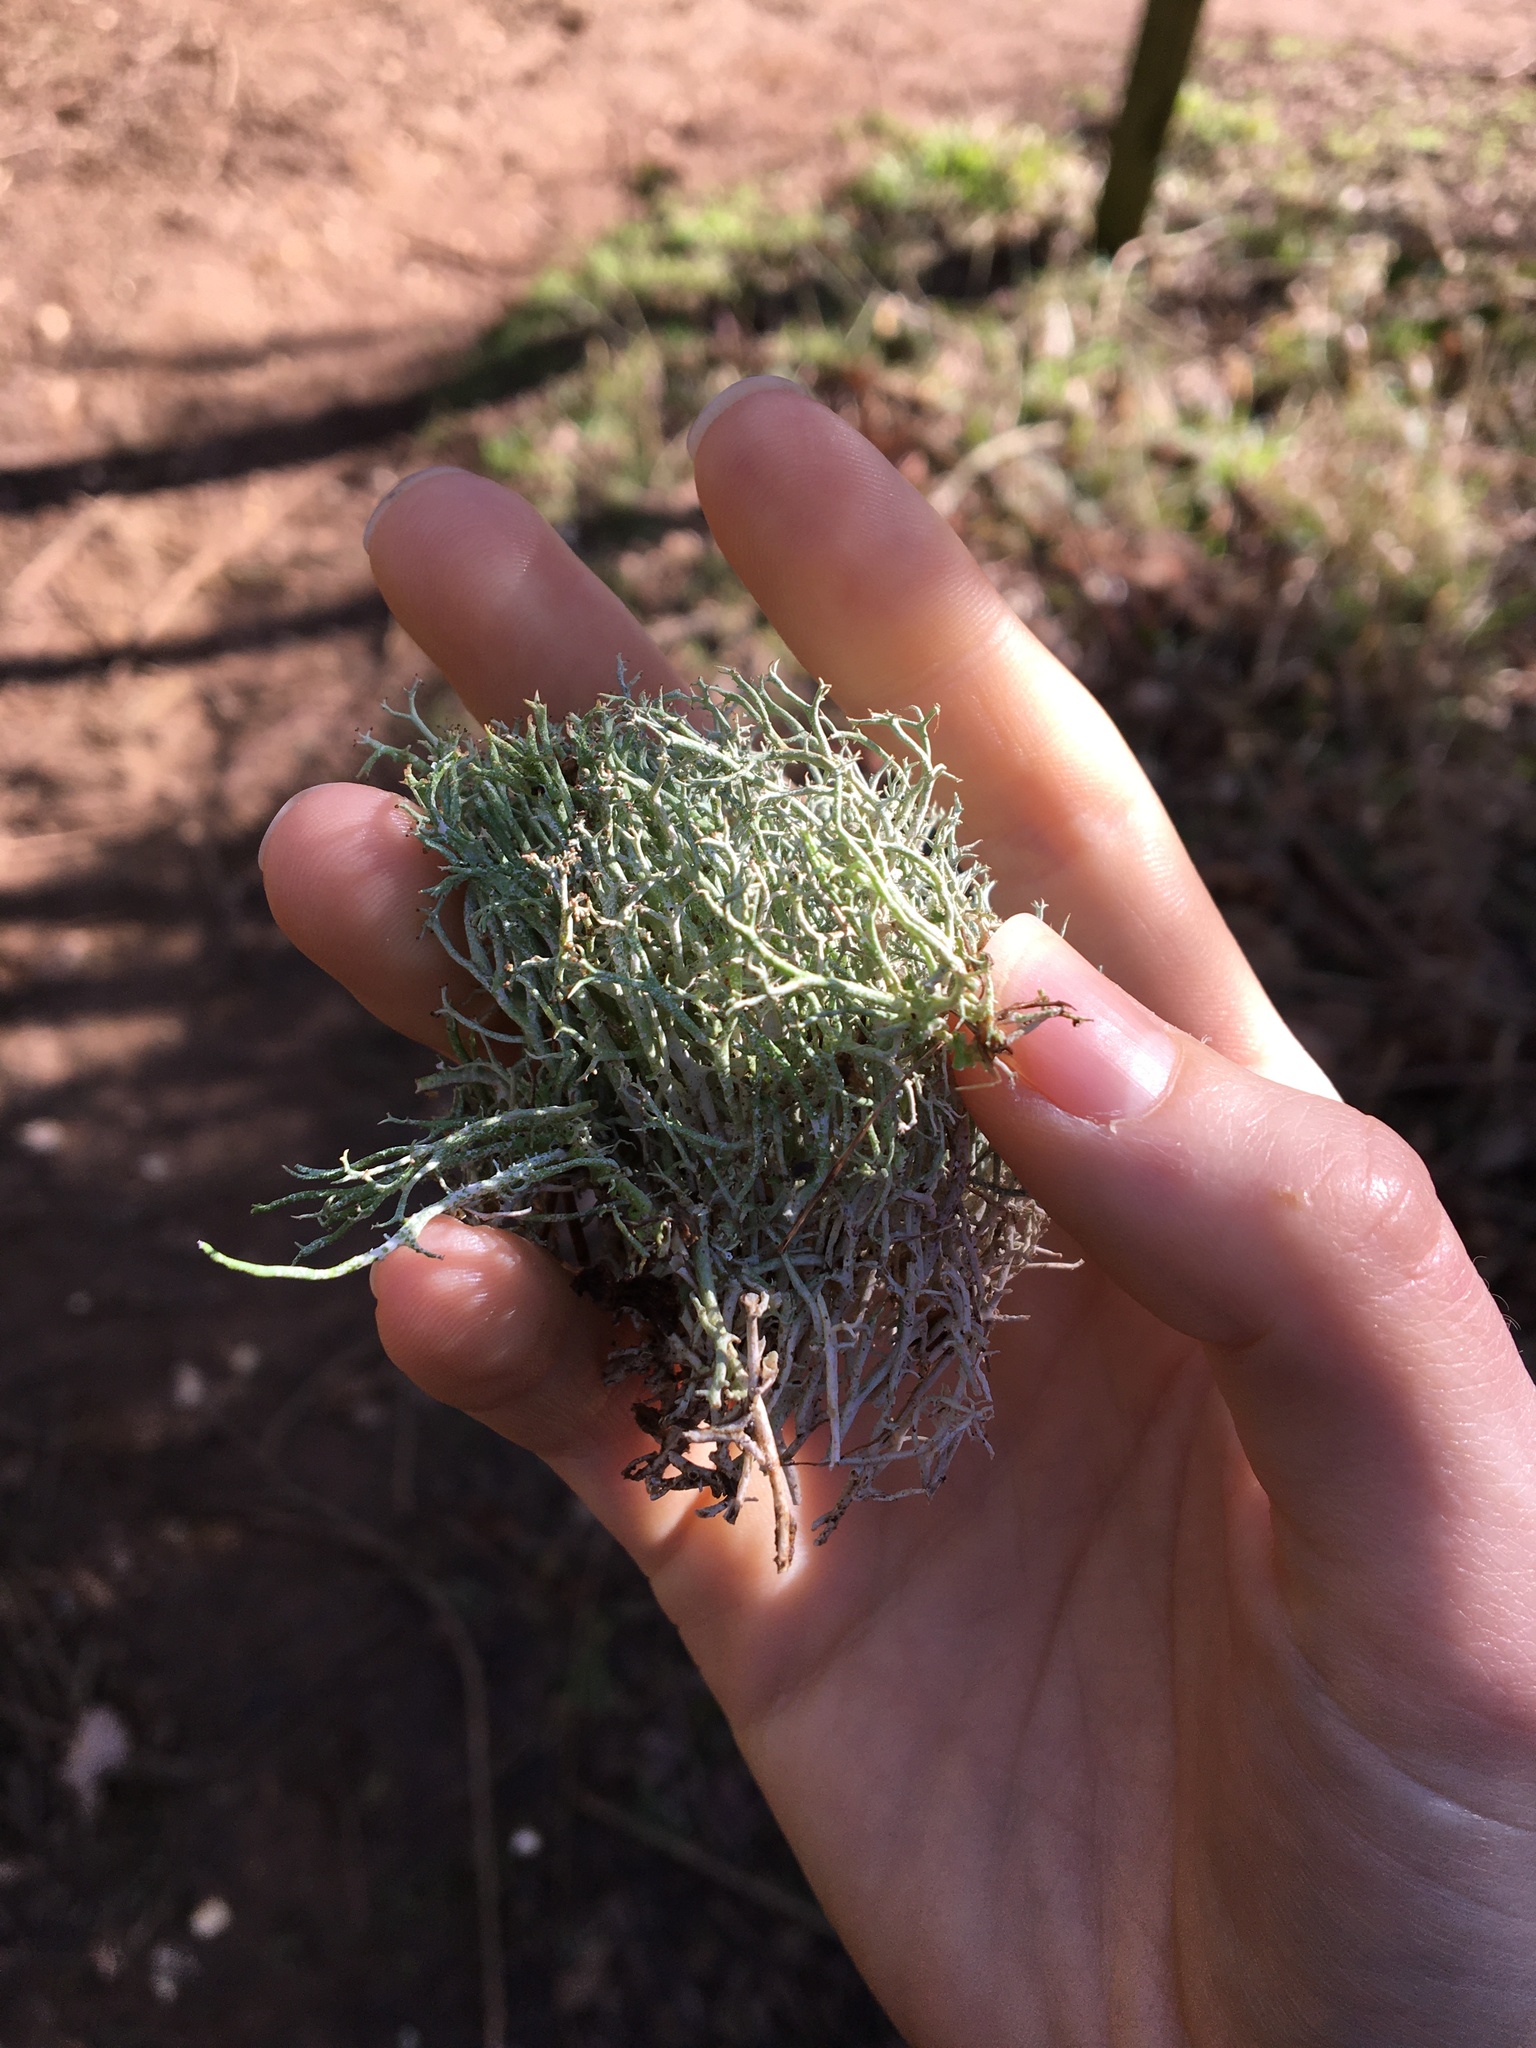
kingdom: Fungi
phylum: Ascomycota
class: Lecanoromycetes
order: Lecanorales
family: Cladoniaceae
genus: Cladonia
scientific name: Cladonia furcata
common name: Many-forked cladonia
